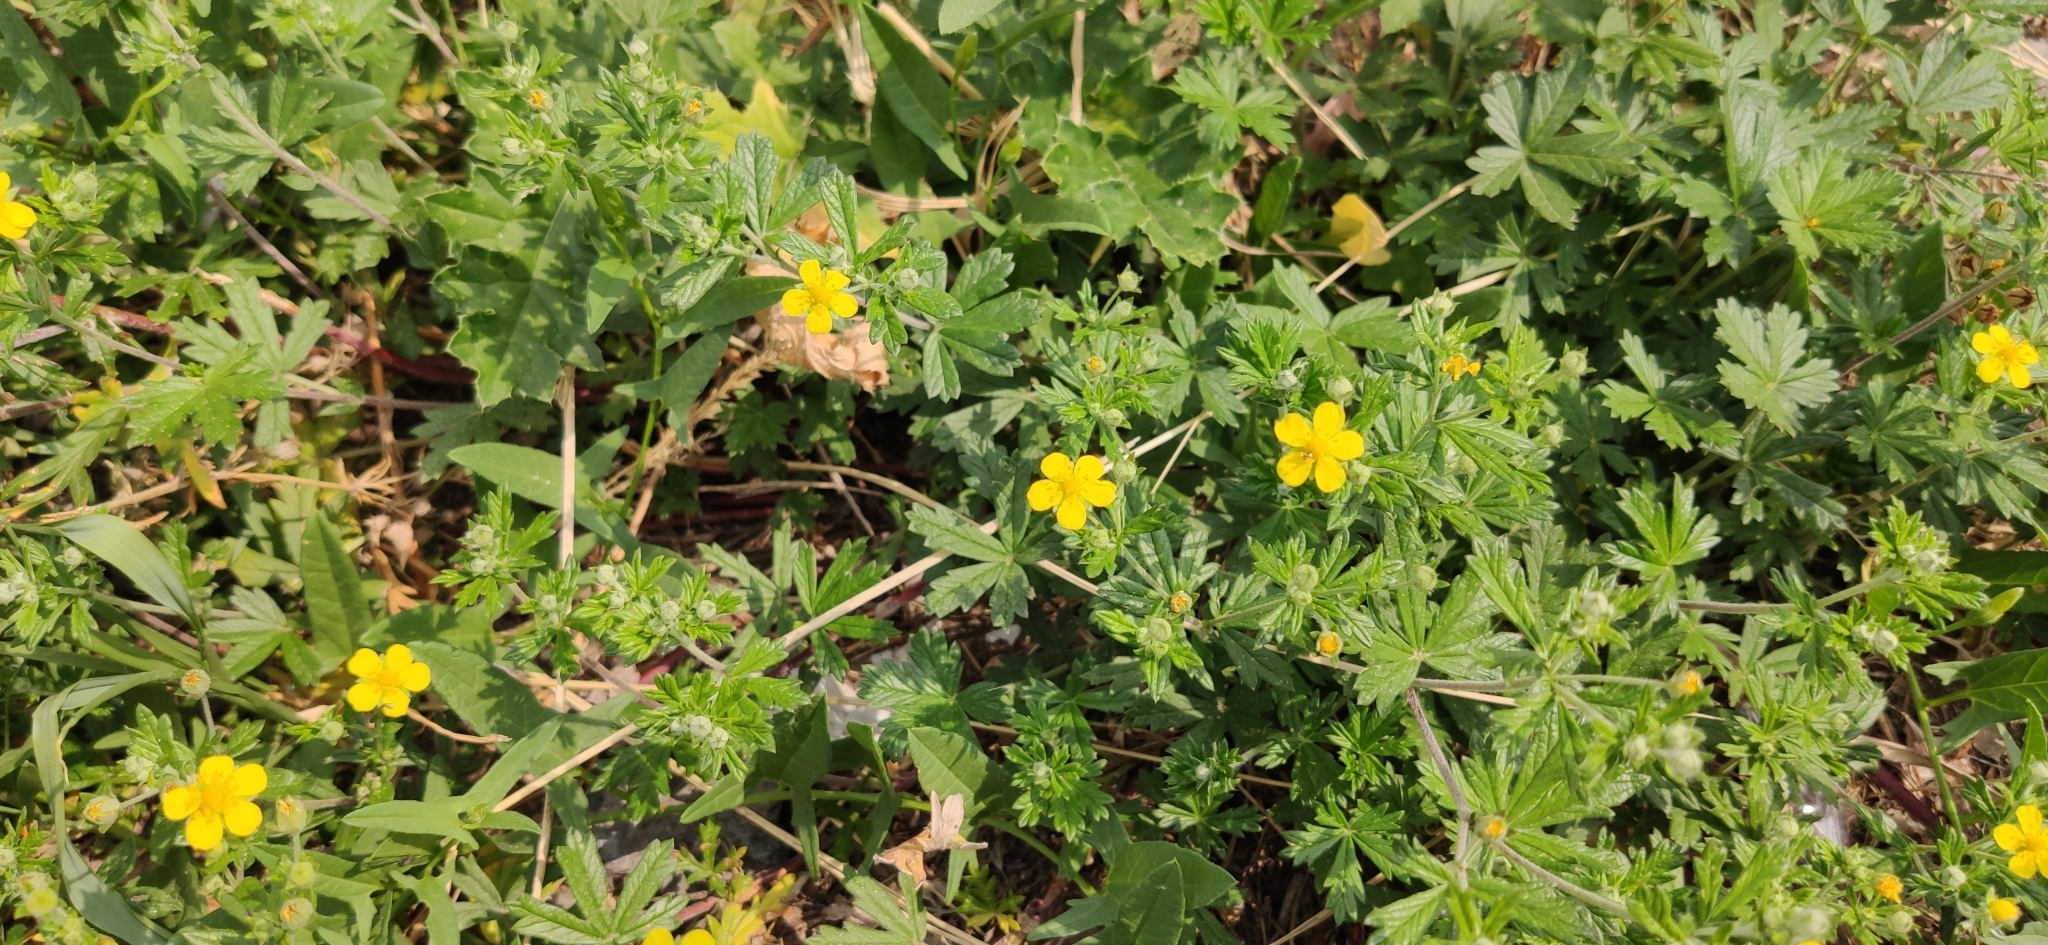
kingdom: Plantae
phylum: Tracheophyta
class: Magnoliopsida
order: Rosales
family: Rosaceae
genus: Potentilla
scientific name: Potentilla argentea
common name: Hoary cinquefoil
